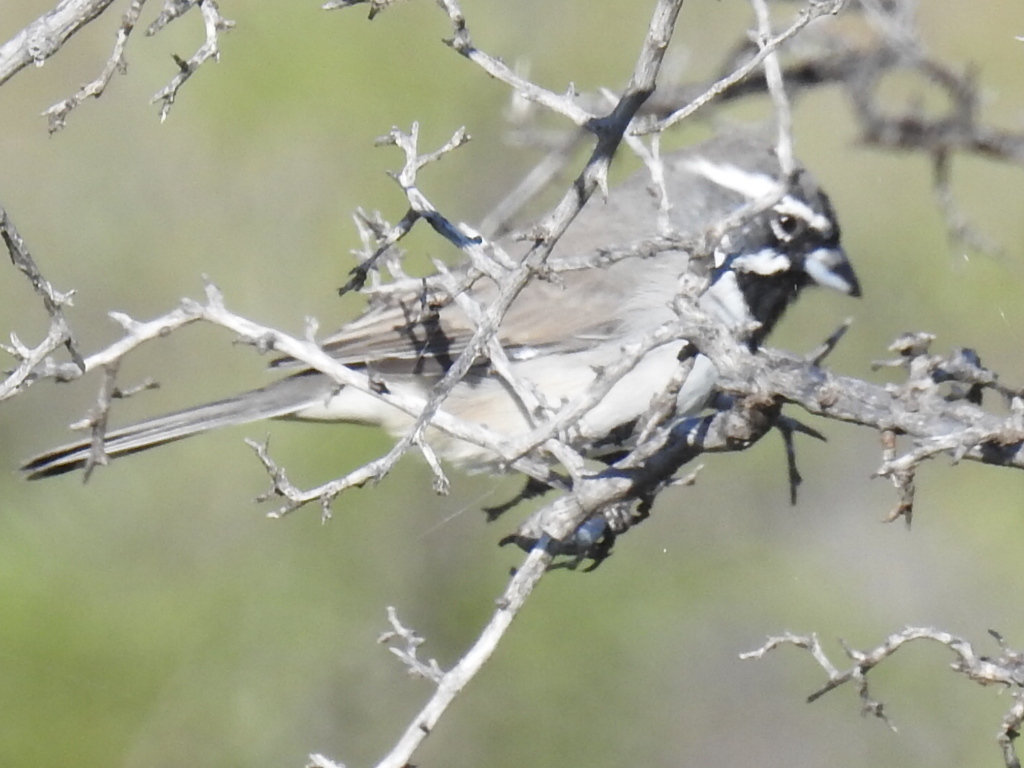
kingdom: Animalia
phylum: Chordata
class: Aves
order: Passeriformes
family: Passerellidae
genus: Amphispiza
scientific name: Amphispiza bilineata
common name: Black-throated sparrow
